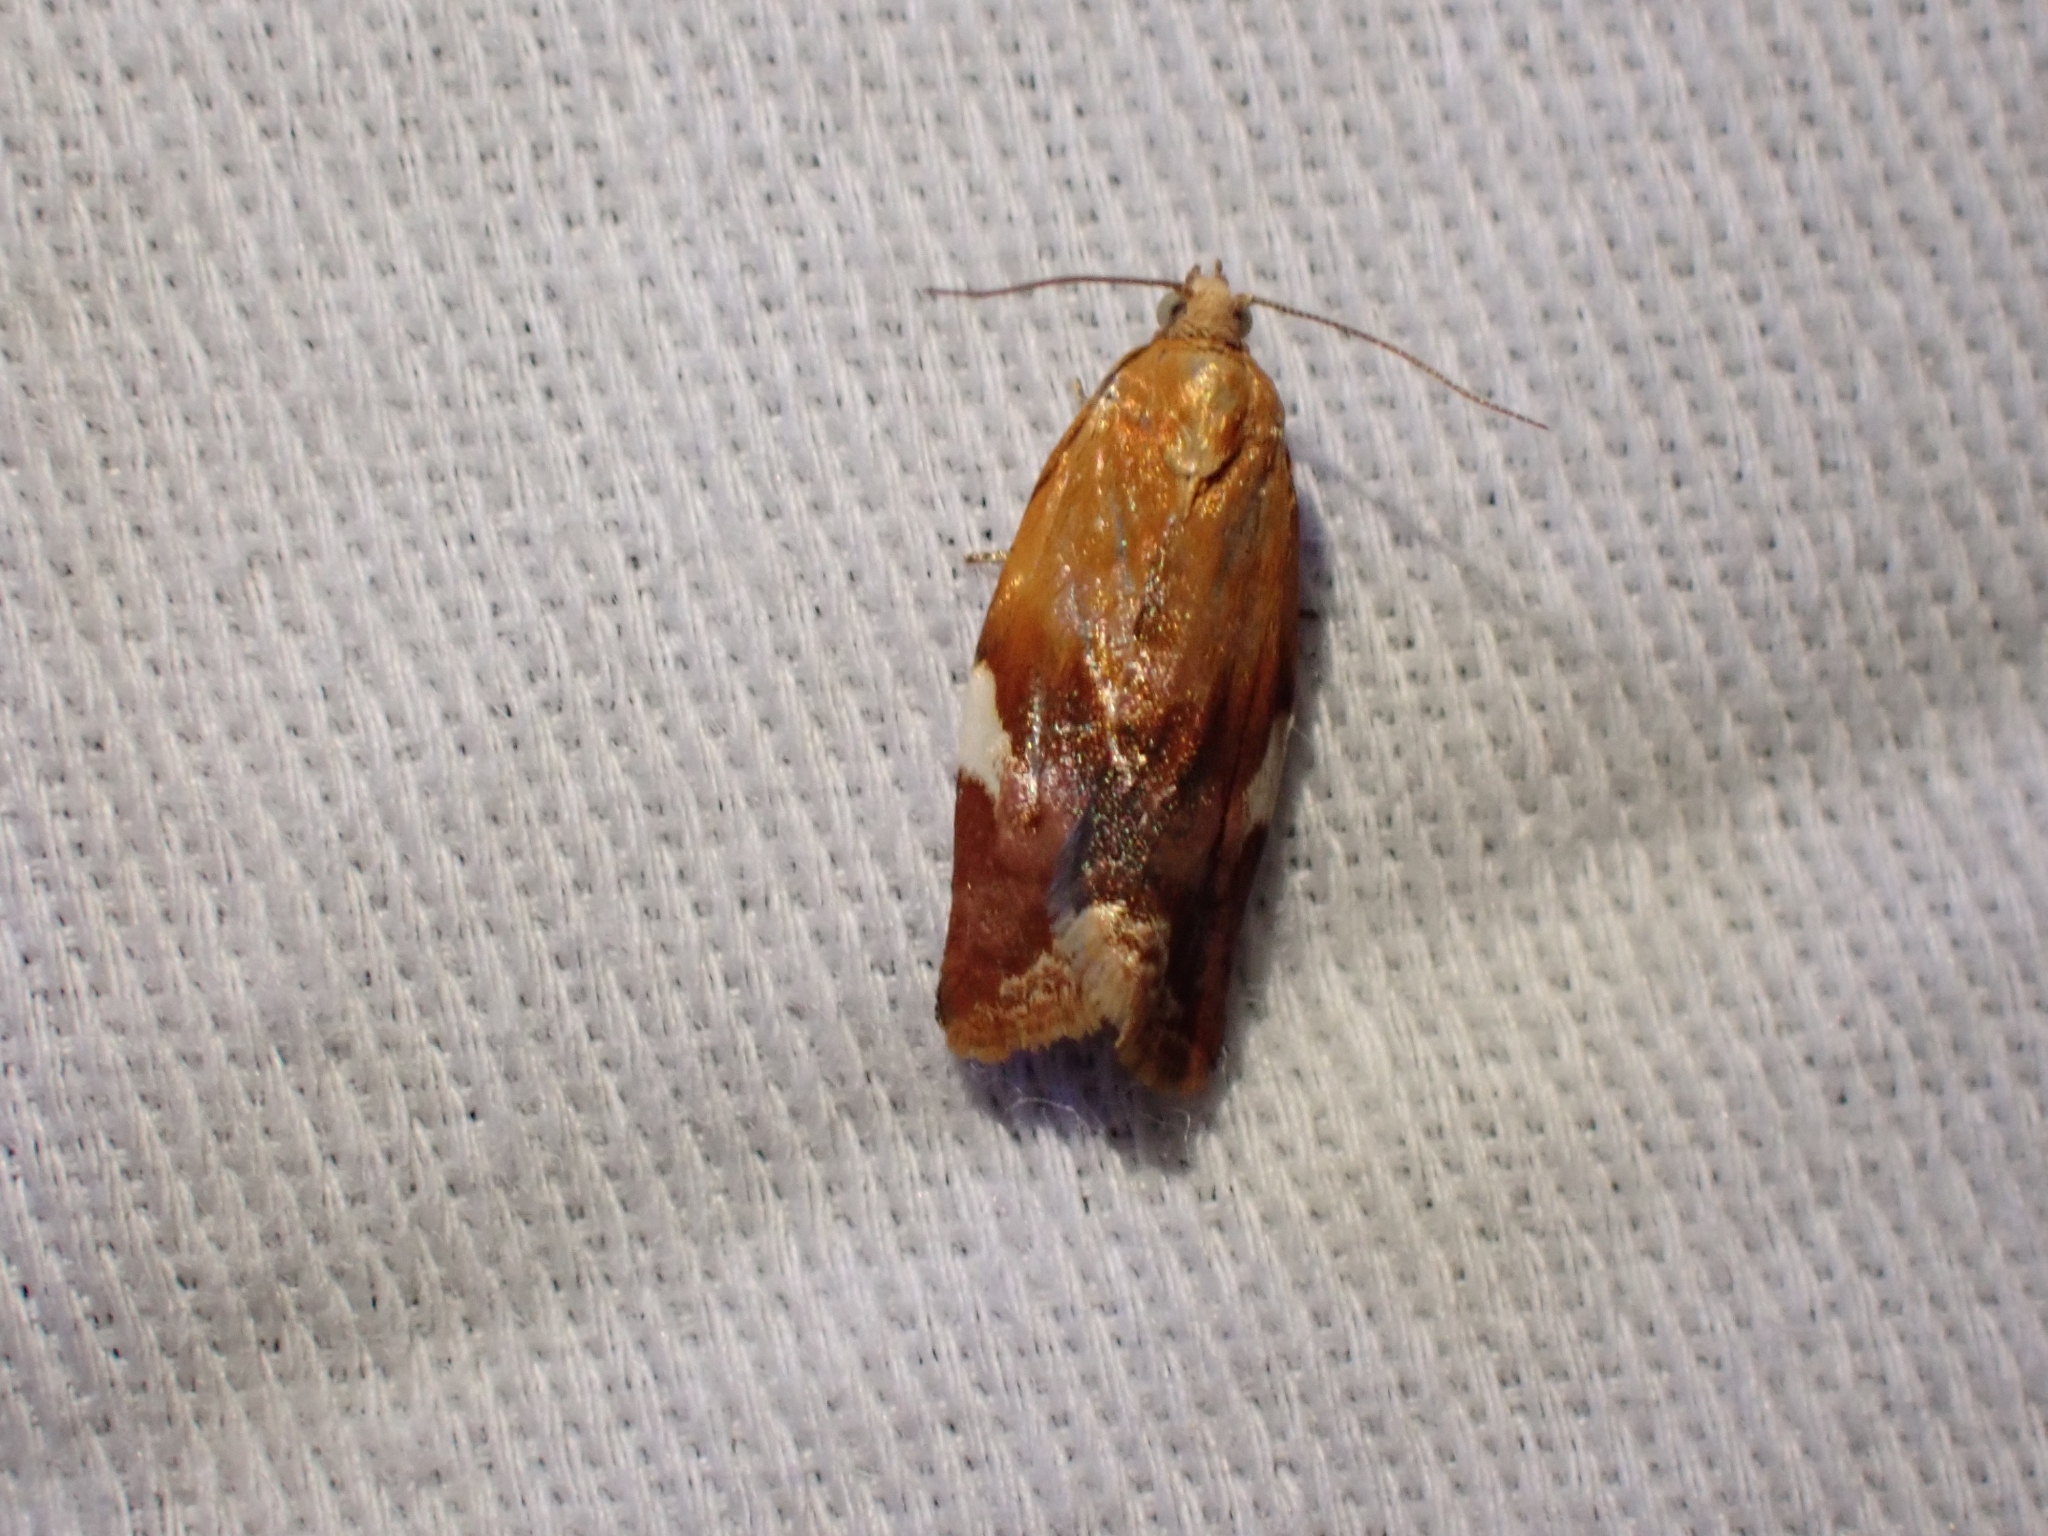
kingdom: Animalia
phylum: Arthropoda
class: Insecta
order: Lepidoptera
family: Tortricidae
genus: Clepsis
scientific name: Clepsis persicana
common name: White triangle tortrix
